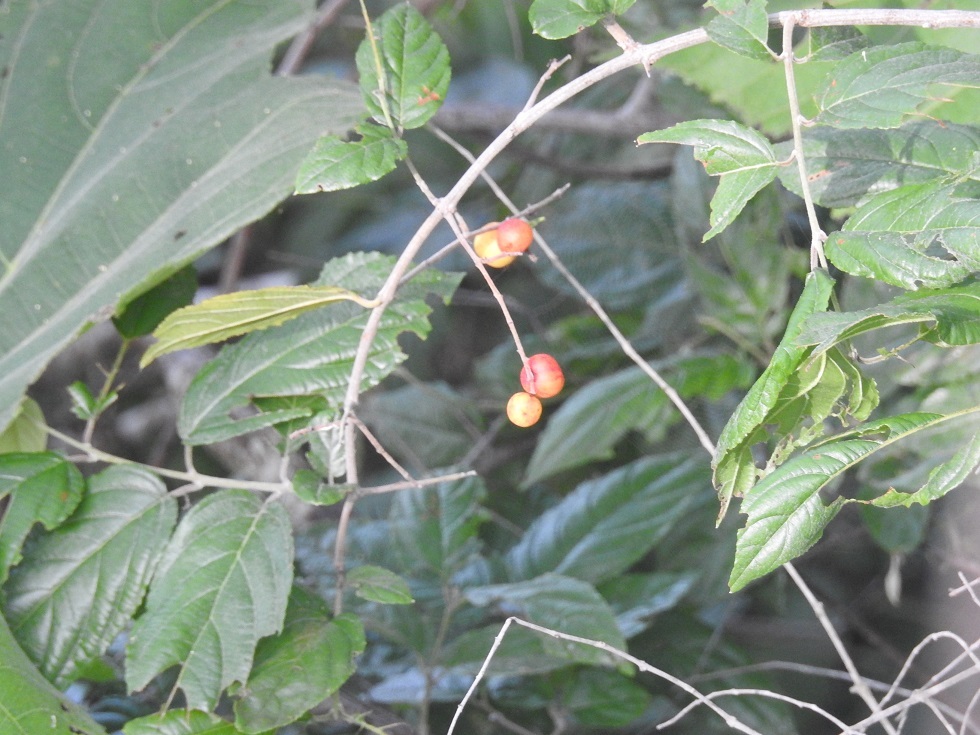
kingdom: Plantae
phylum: Tracheophyta
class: Magnoliopsida
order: Rosales
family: Rhamnaceae
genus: Sageretia
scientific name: Sageretia elegans
